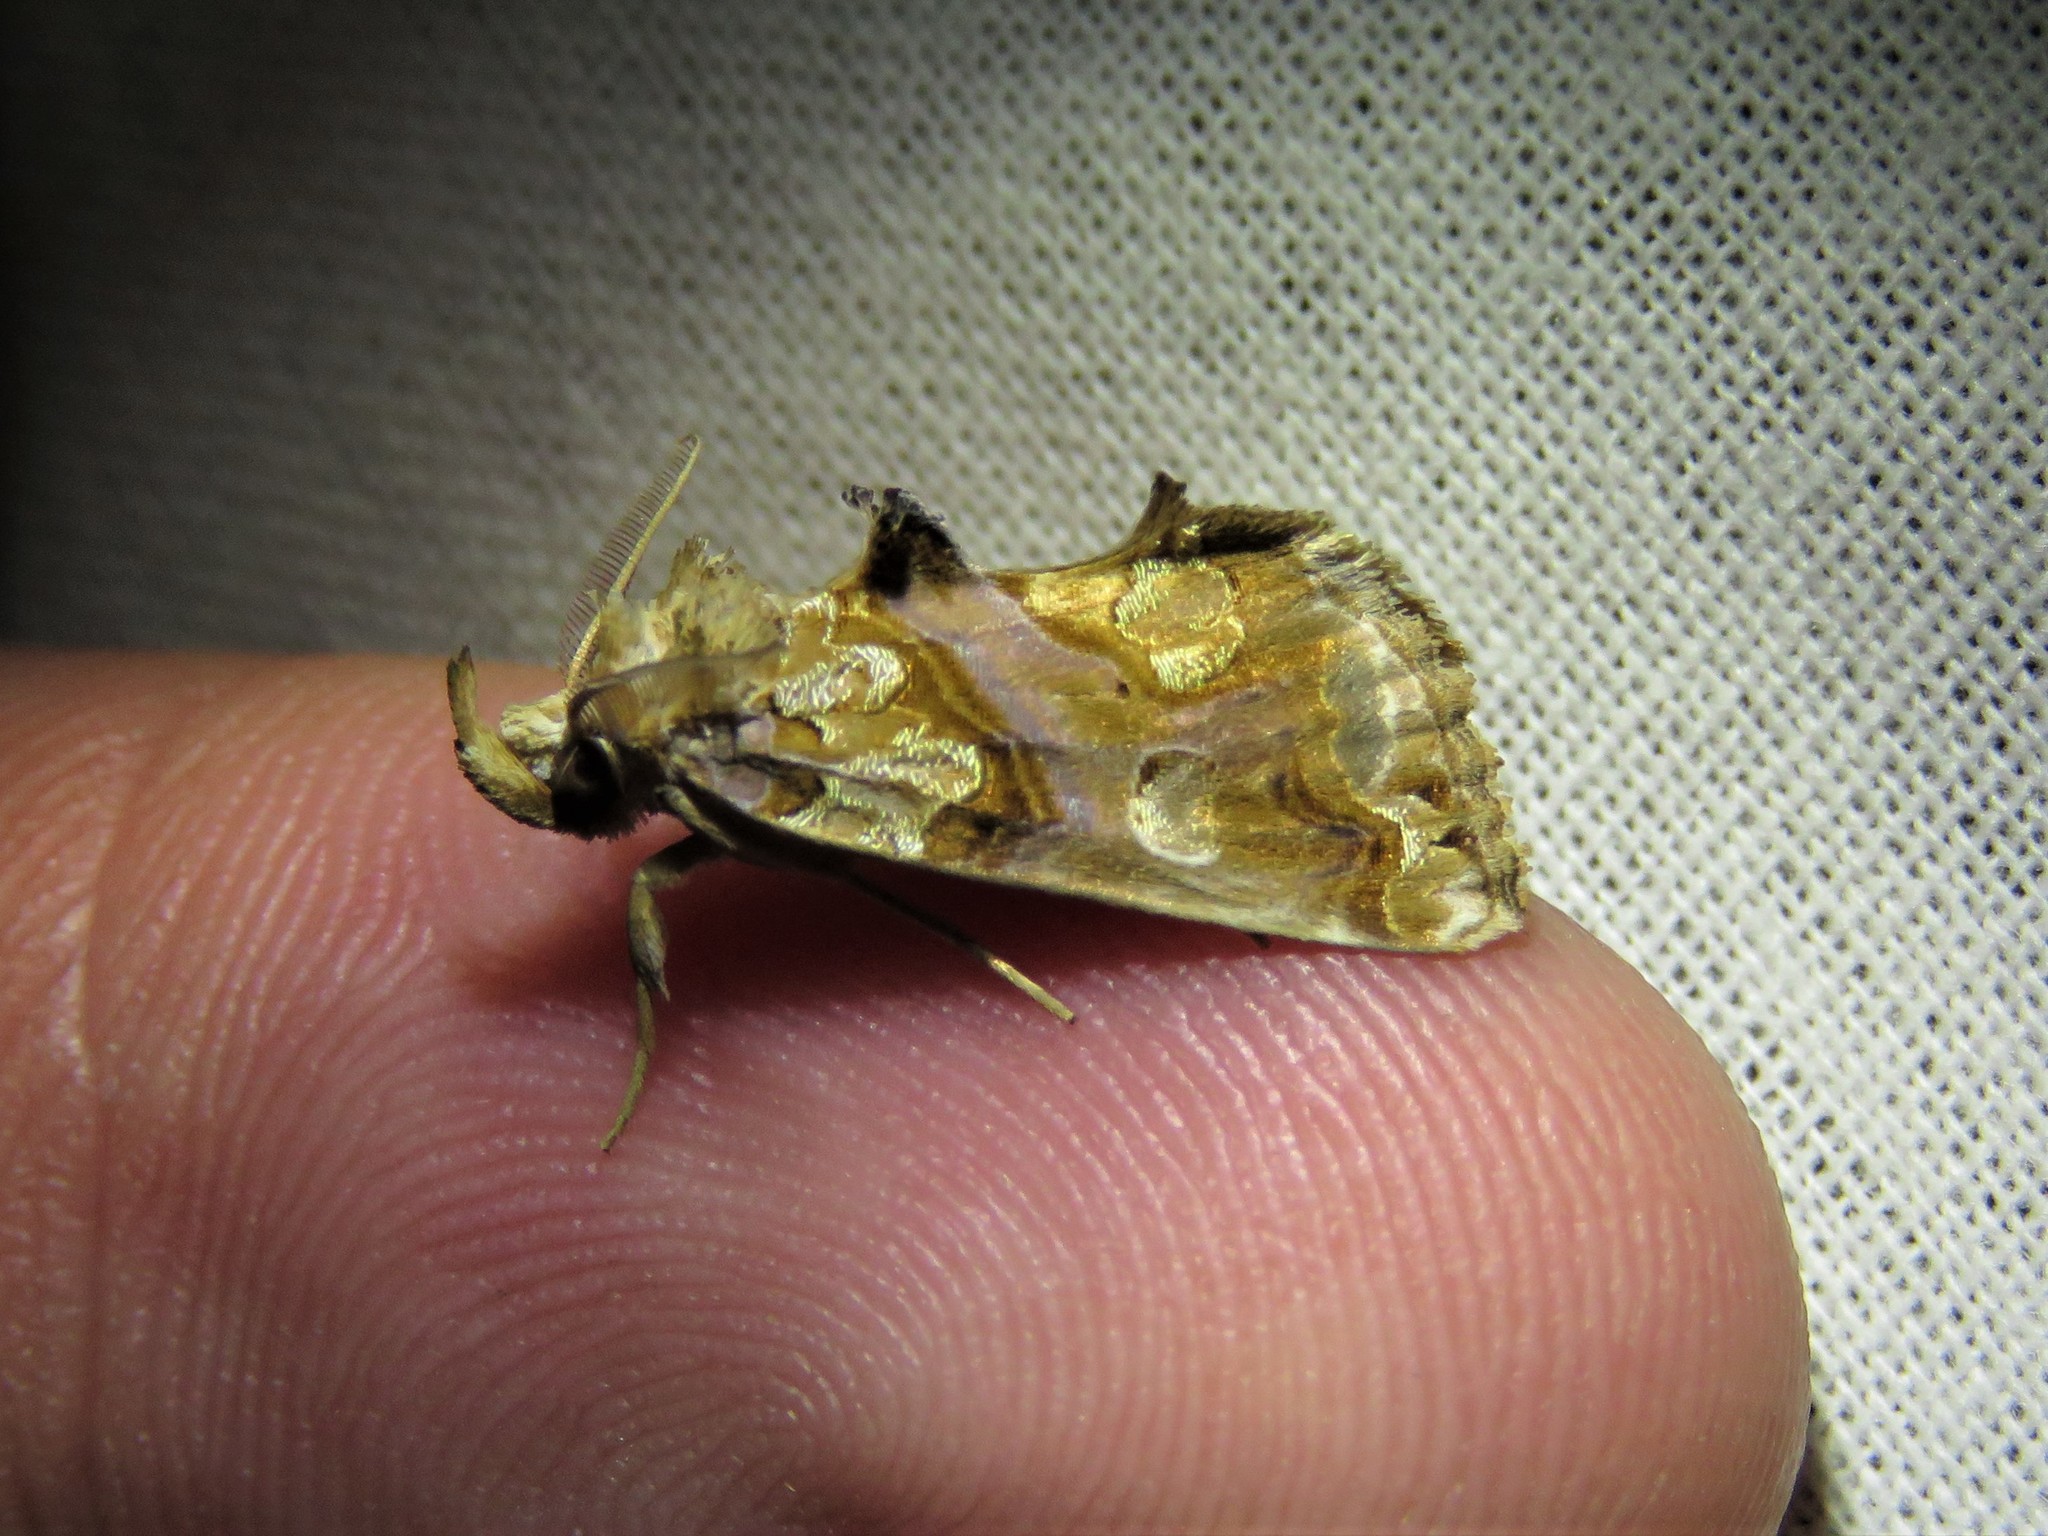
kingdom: Animalia
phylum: Arthropoda
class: Insecta
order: Lepidoptera
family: Erebidae
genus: Plusiodonta
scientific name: Plusiodonta compressipalpis
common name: Moonseed moth
